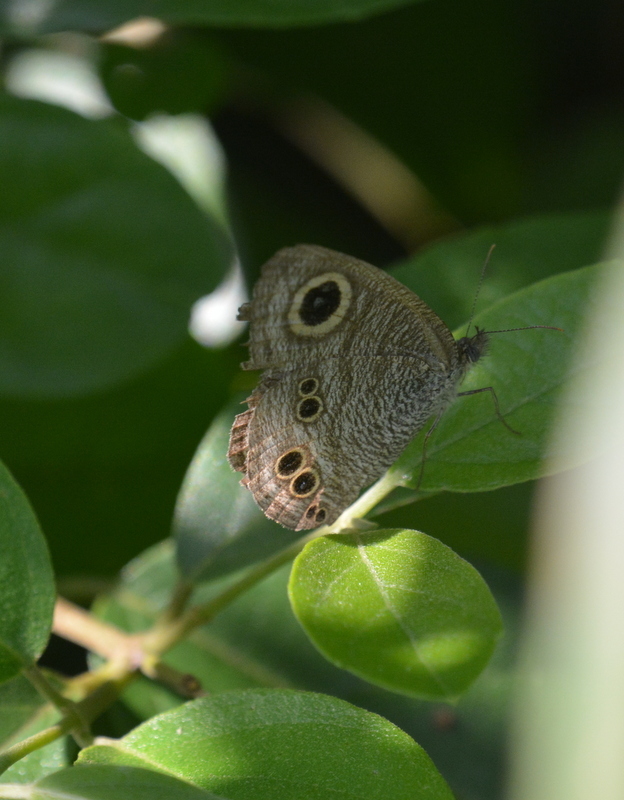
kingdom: Animalia
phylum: Arthropoda
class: Insecta
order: Lepidoptera
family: Nymphalidae
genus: Ypthima
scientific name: Ypthima baldus
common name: Common five-ring
